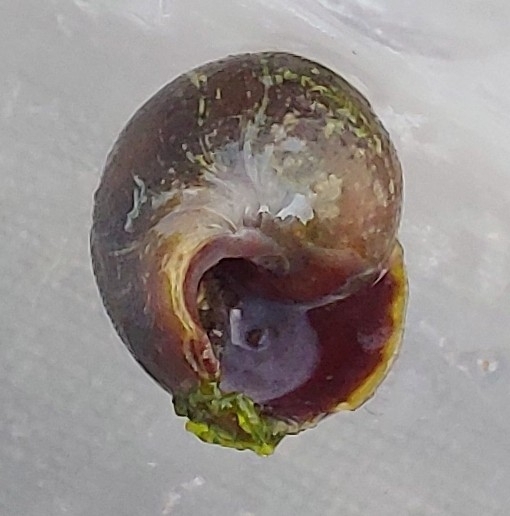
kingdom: Animalia
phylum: Mollusca
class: Gastropoda
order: Littorinimorpha
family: Littorinidae
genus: Littorina
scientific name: Littorina
